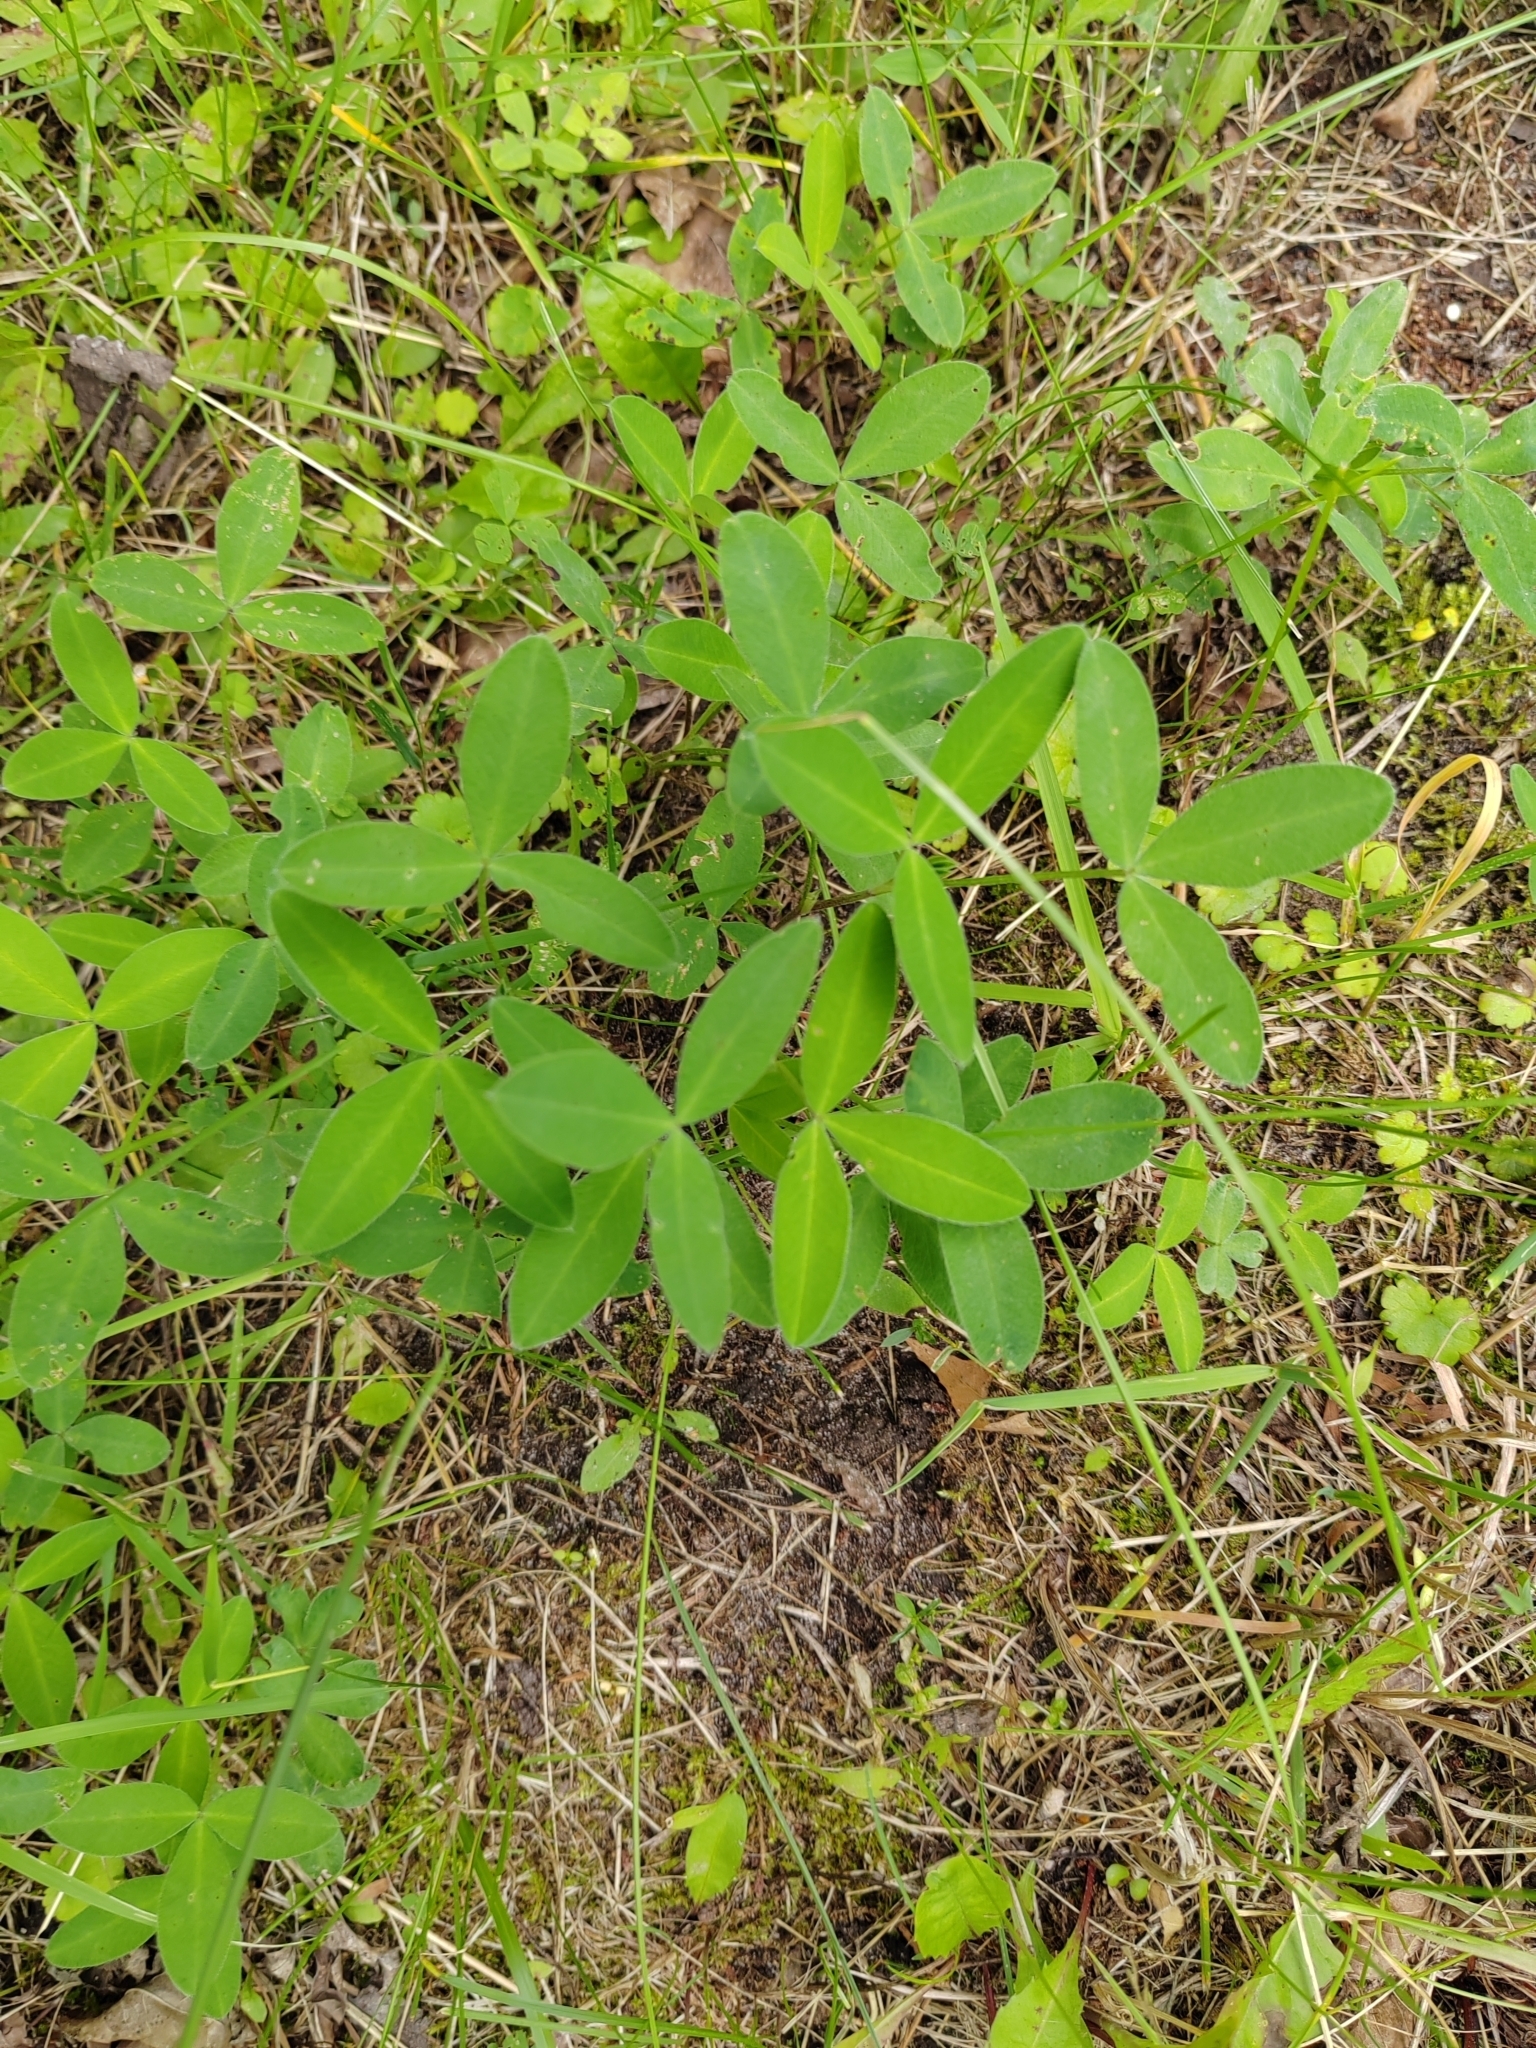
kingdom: Plantae
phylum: Tracheophyta
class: Magnoliopsida
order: Fabales
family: Fabaceae
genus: Trifolium
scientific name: Trifolium medium
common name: Zigzag clover
